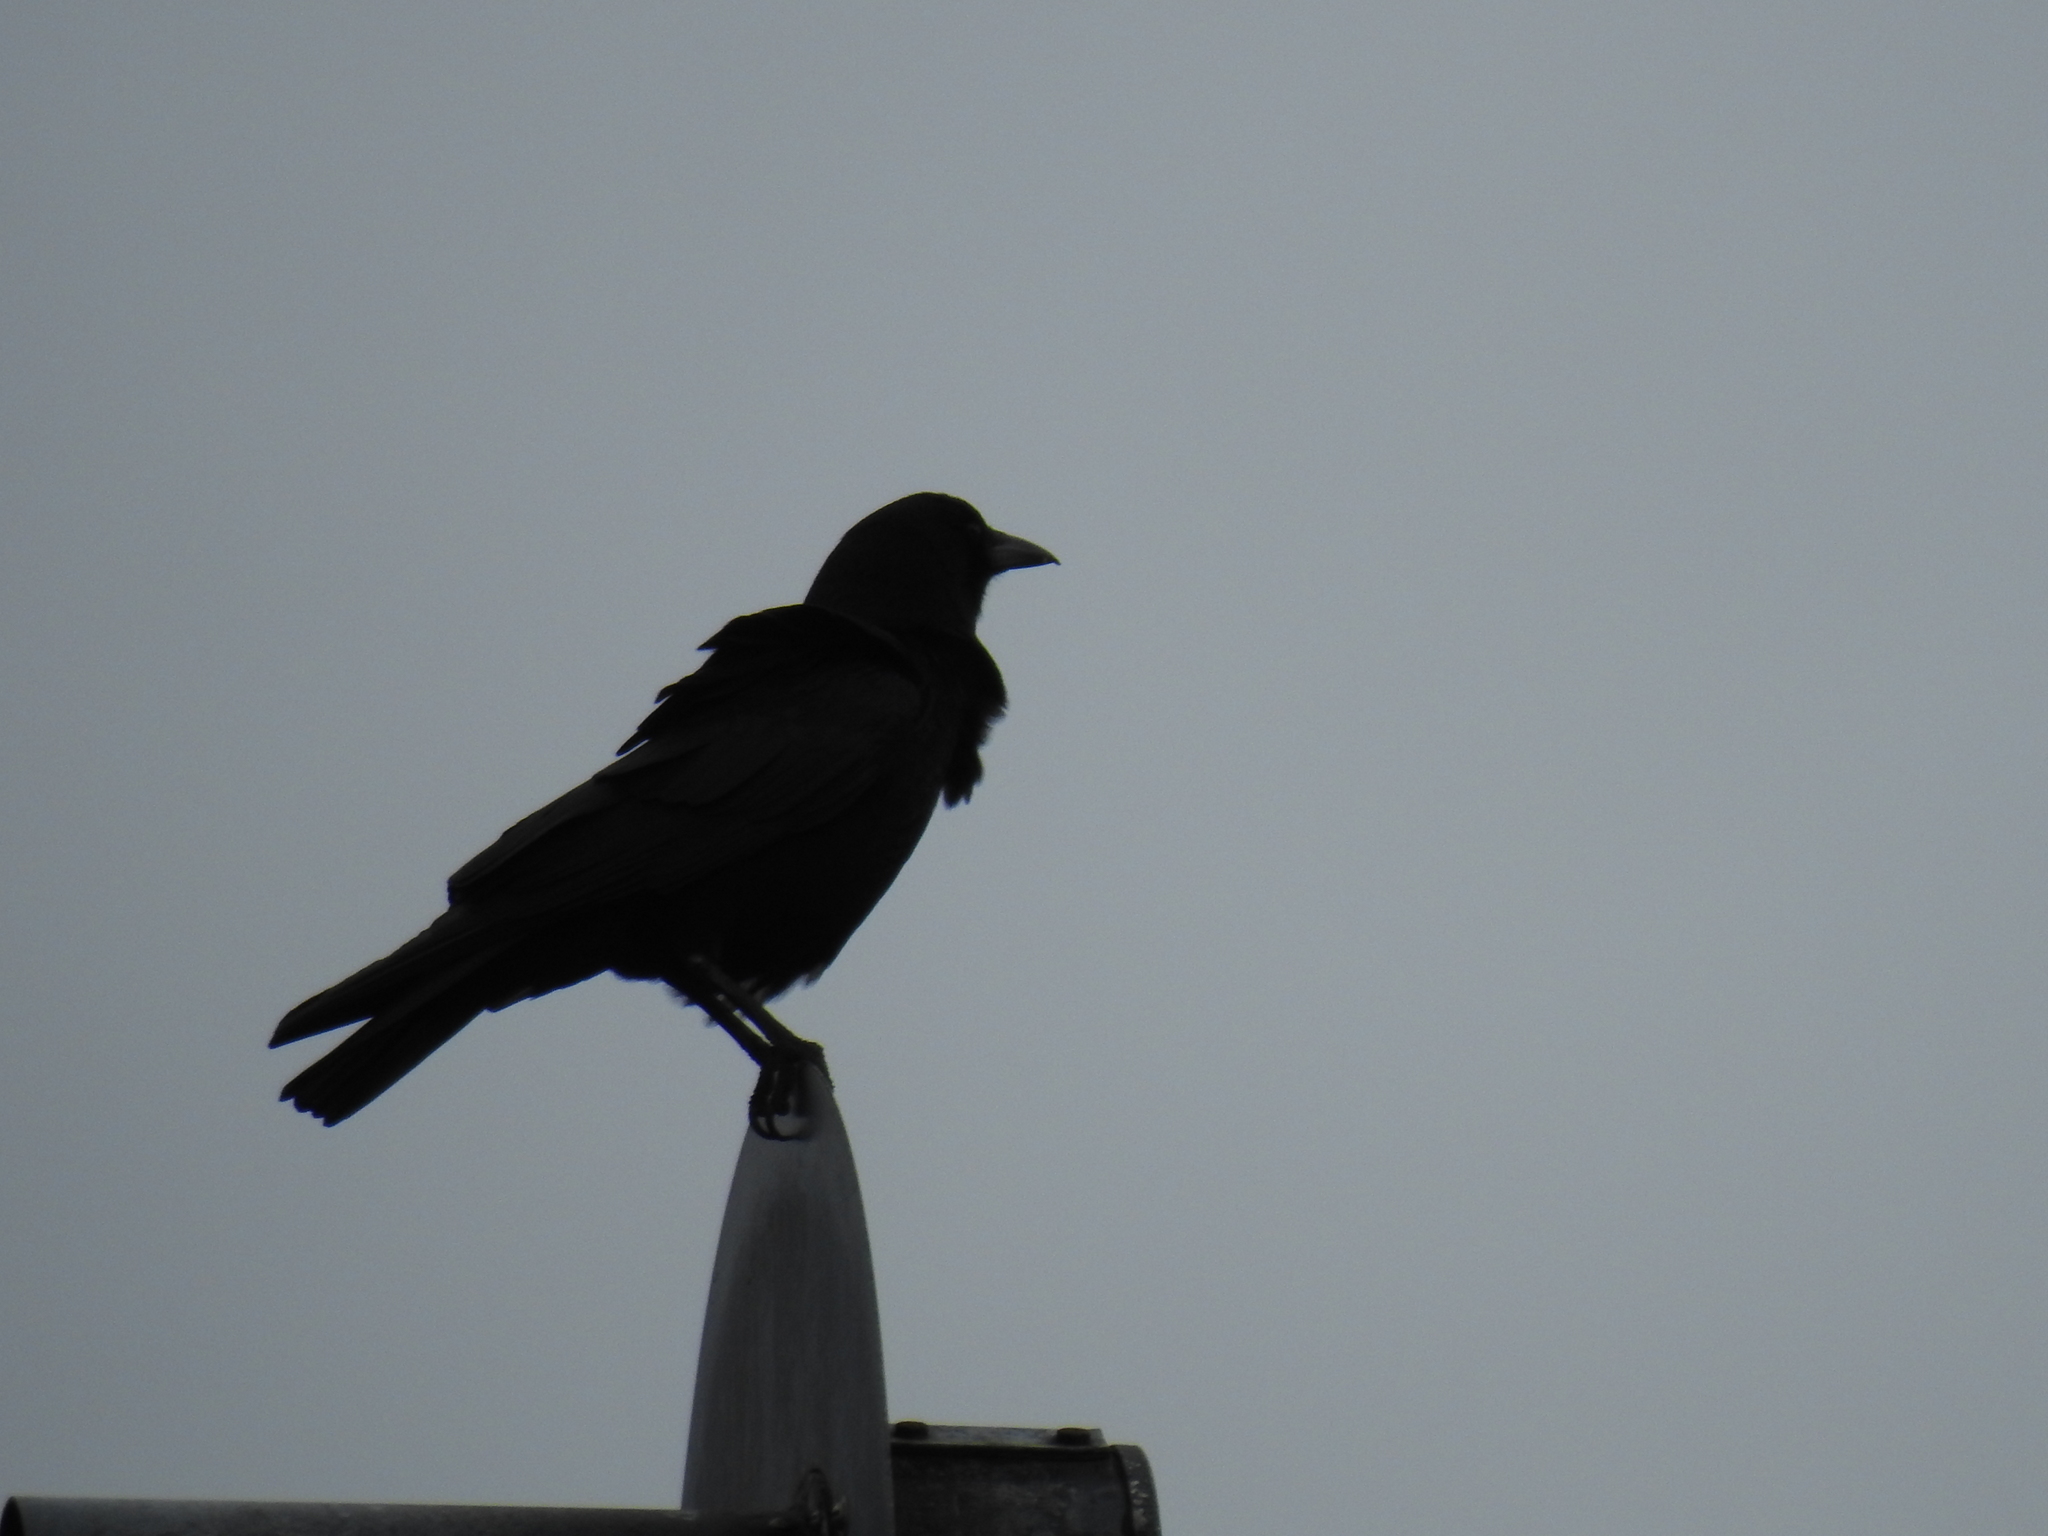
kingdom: Animalia
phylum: Chordata
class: Aves
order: Passeriformes
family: Corvidae
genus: Corvus
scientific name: Corvus brachyrhynchos
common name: American crow
